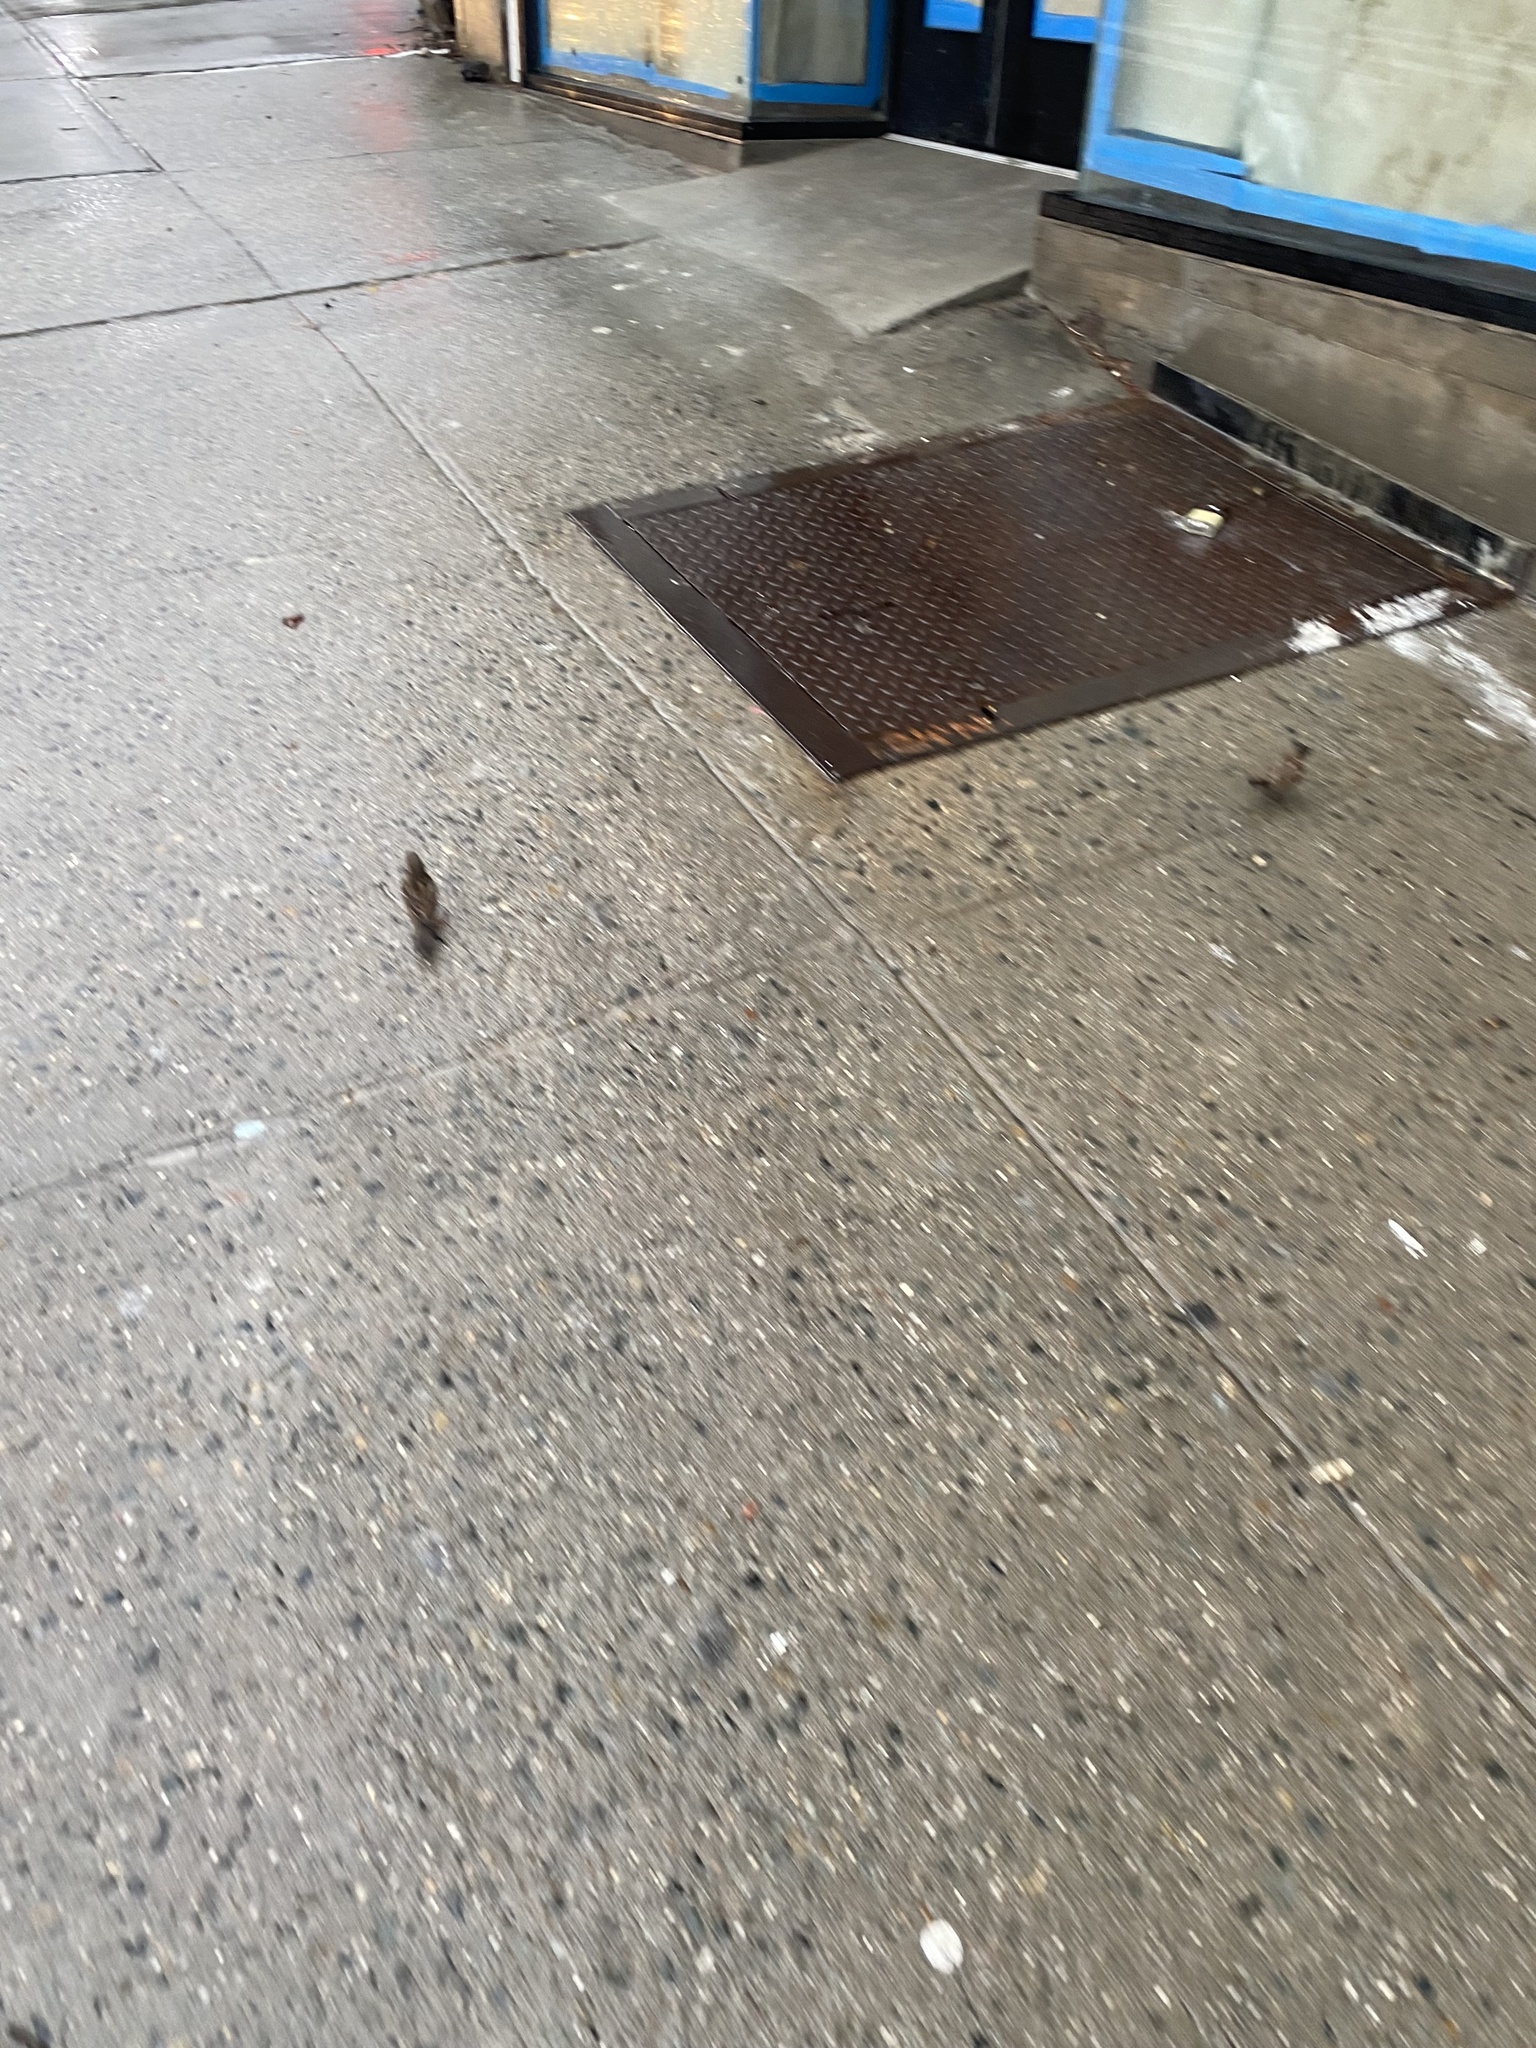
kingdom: Animalia
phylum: Chordata
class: Aves
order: Passeriformes
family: Passeridae
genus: Passer
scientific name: Passer domesticus
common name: House sparrow
